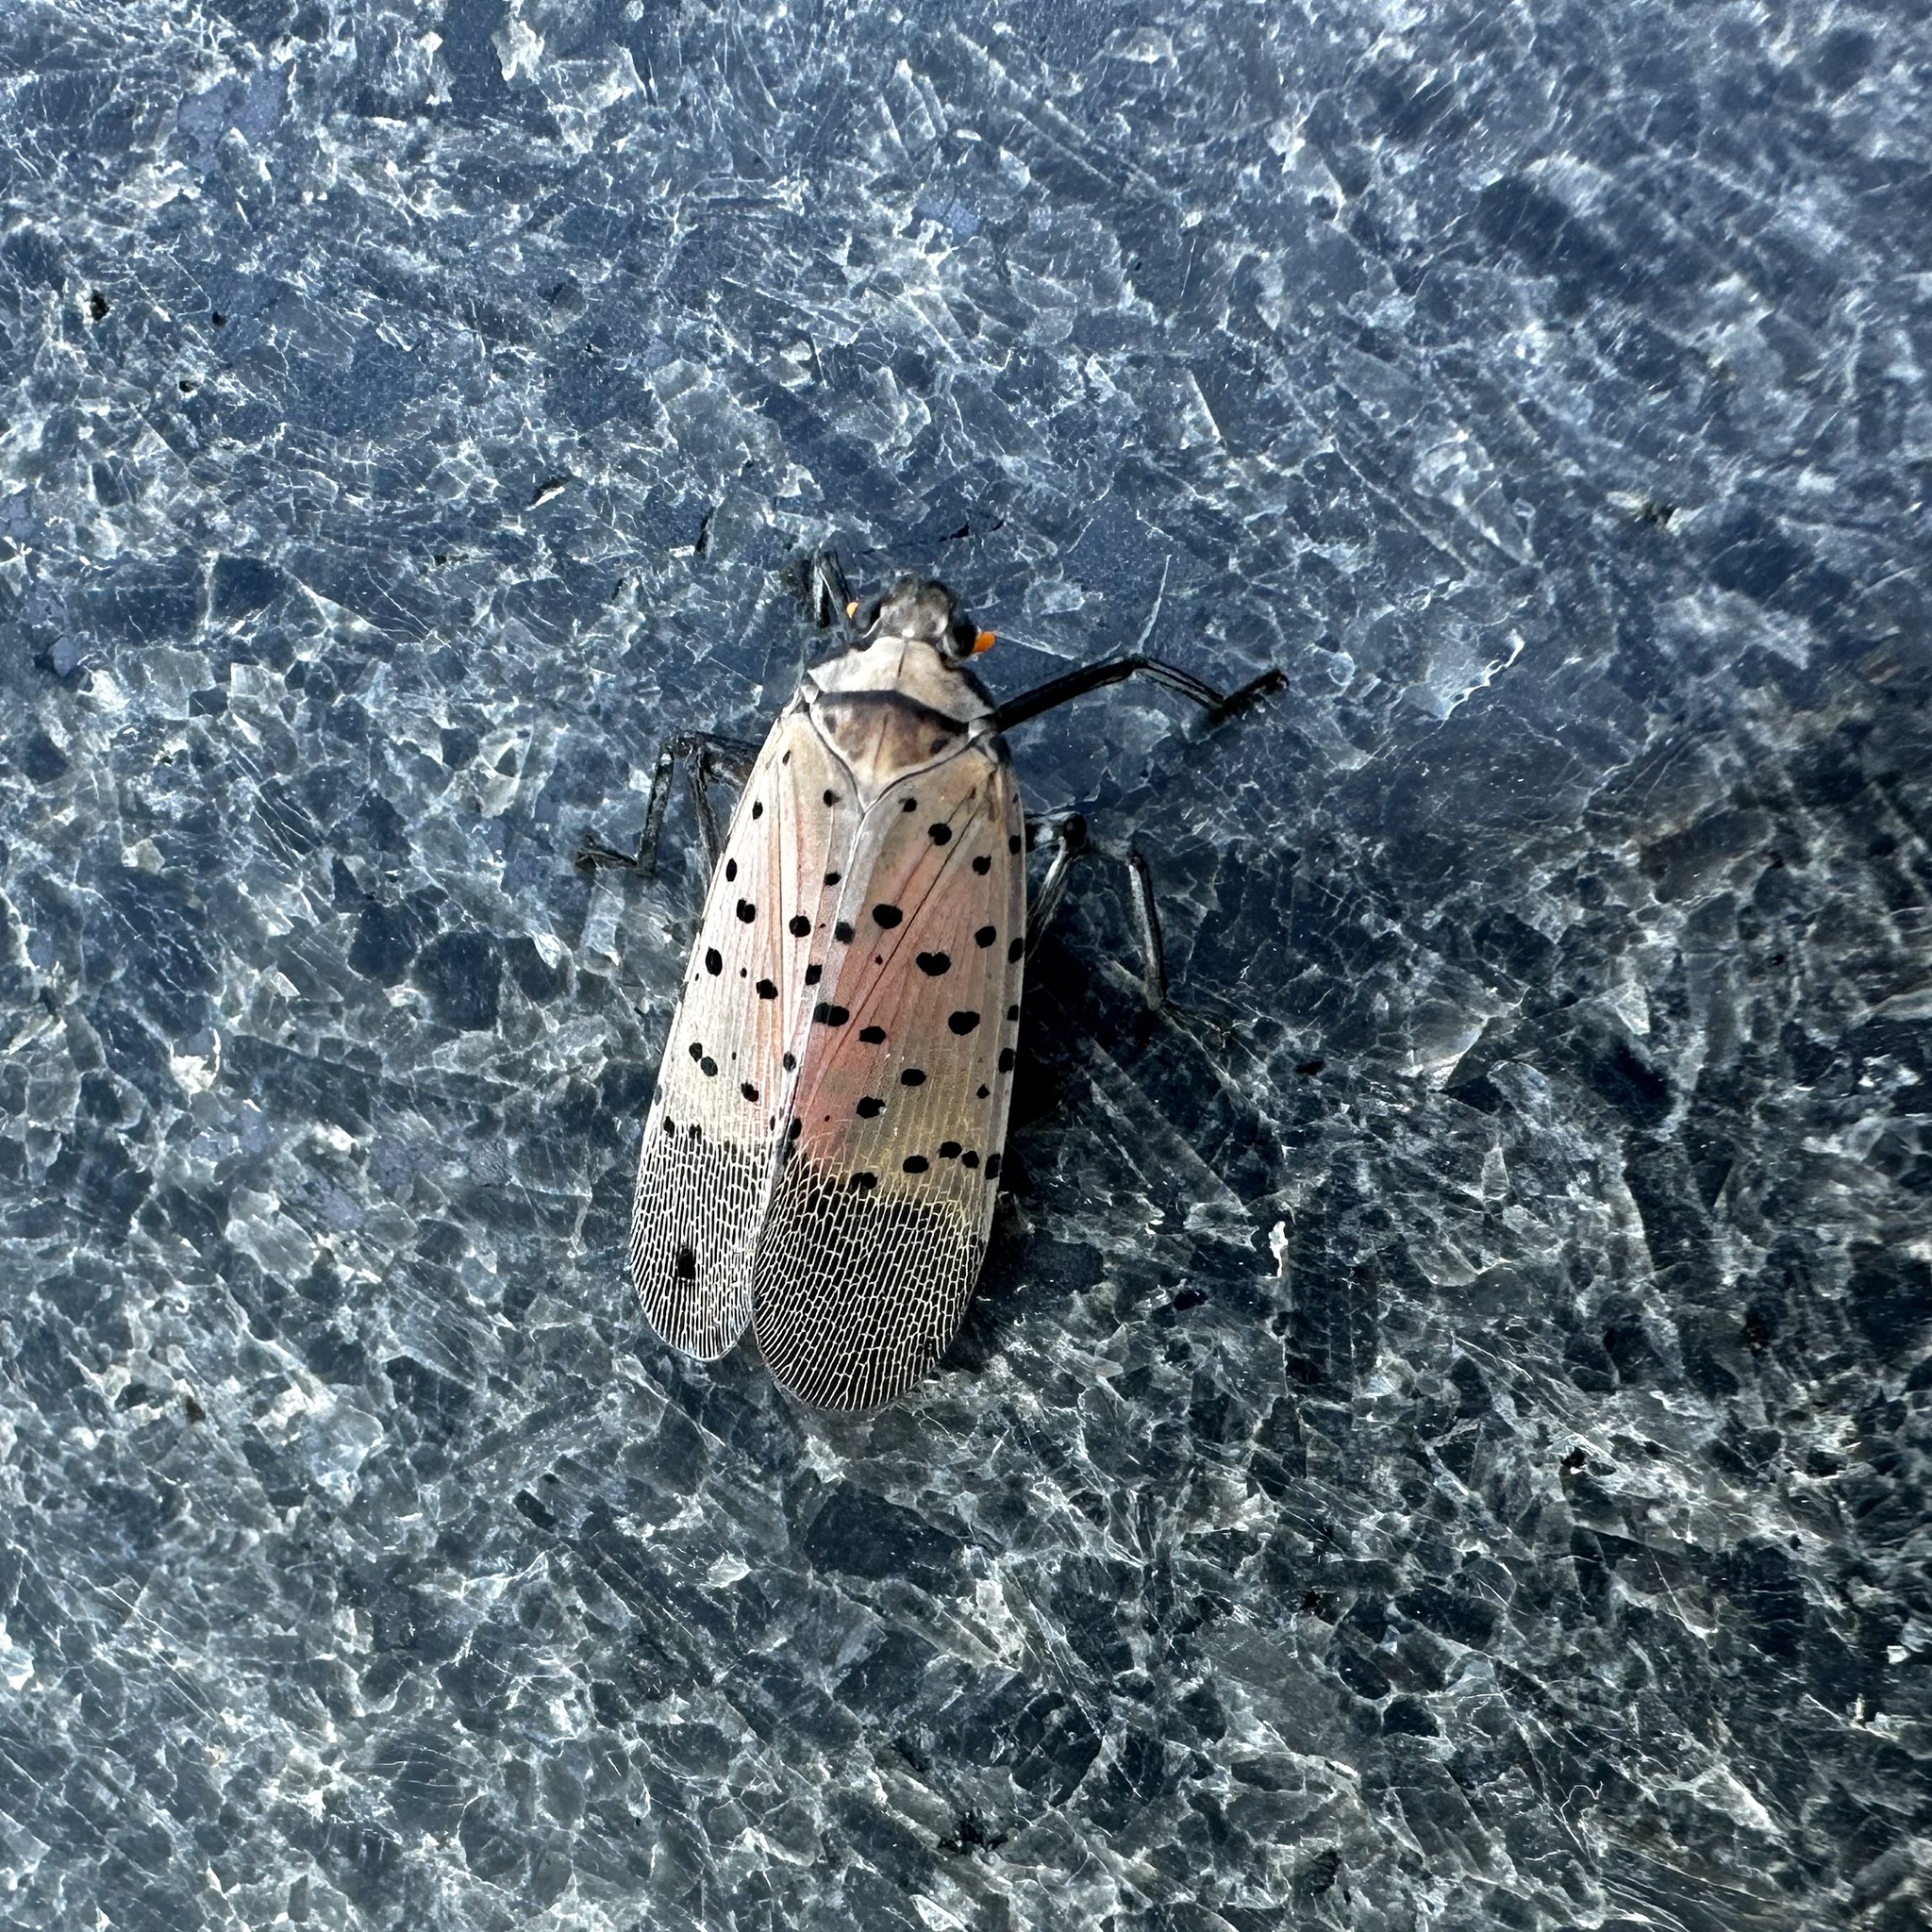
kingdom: Animalia
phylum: Arthropoda
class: Insecta
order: Hemiptera
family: Fulgoridae
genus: Lycorma
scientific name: Lycorma delicatula
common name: Spotted lanternfly
